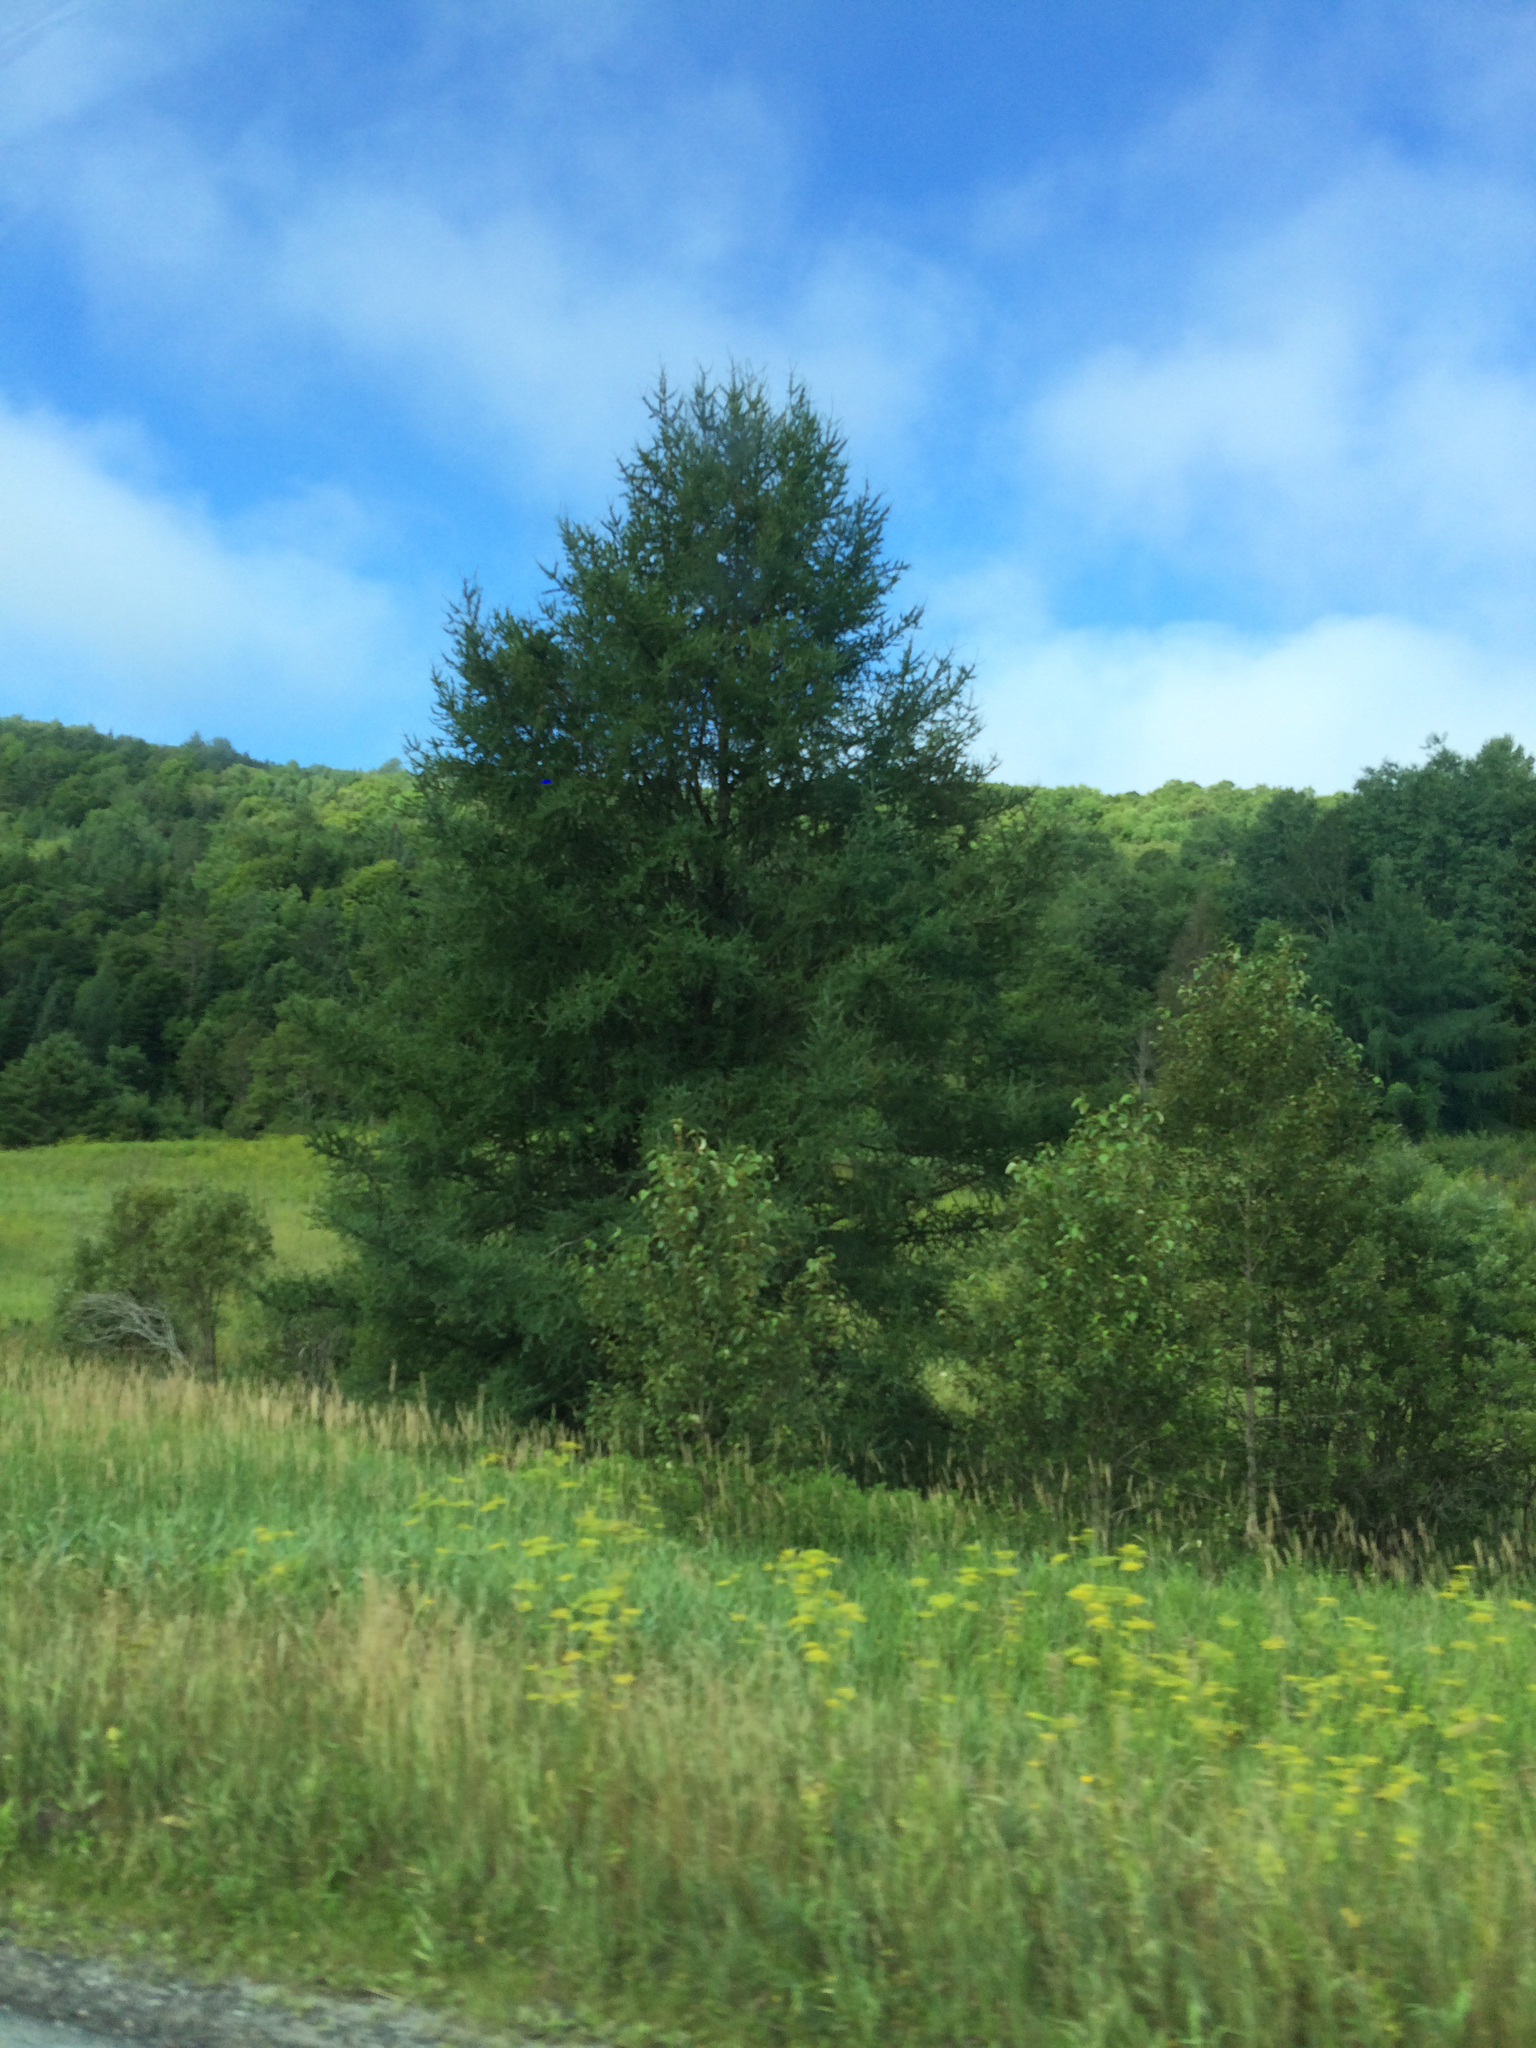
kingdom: Plantae
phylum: Tracheophyta
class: Pinopsida
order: Pinales
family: Pinaceae
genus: Larix
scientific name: Larix laricina
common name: American larch
